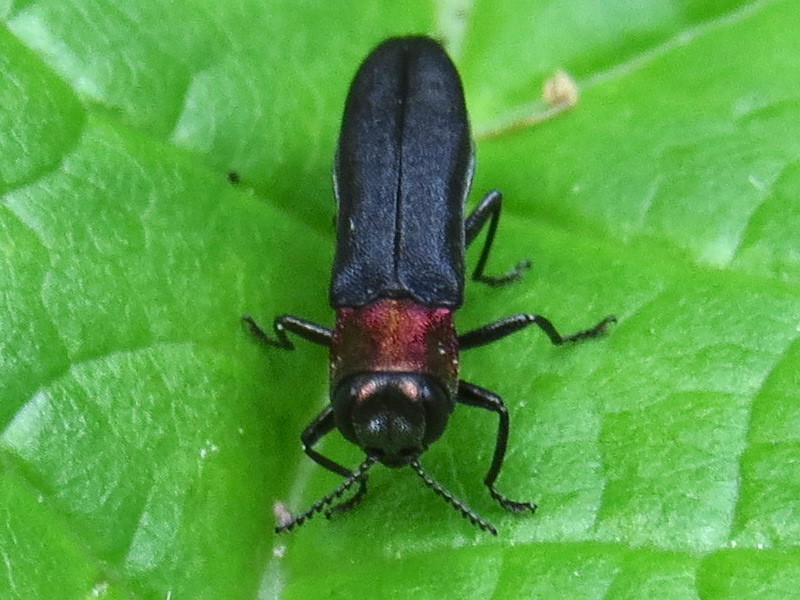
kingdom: Animalia
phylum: Arthropoda
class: Insecta
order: Coleoptera
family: Buprestidae
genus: Agrilus
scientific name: Agrilus ruficollis
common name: Red-necked cane borer beetle
